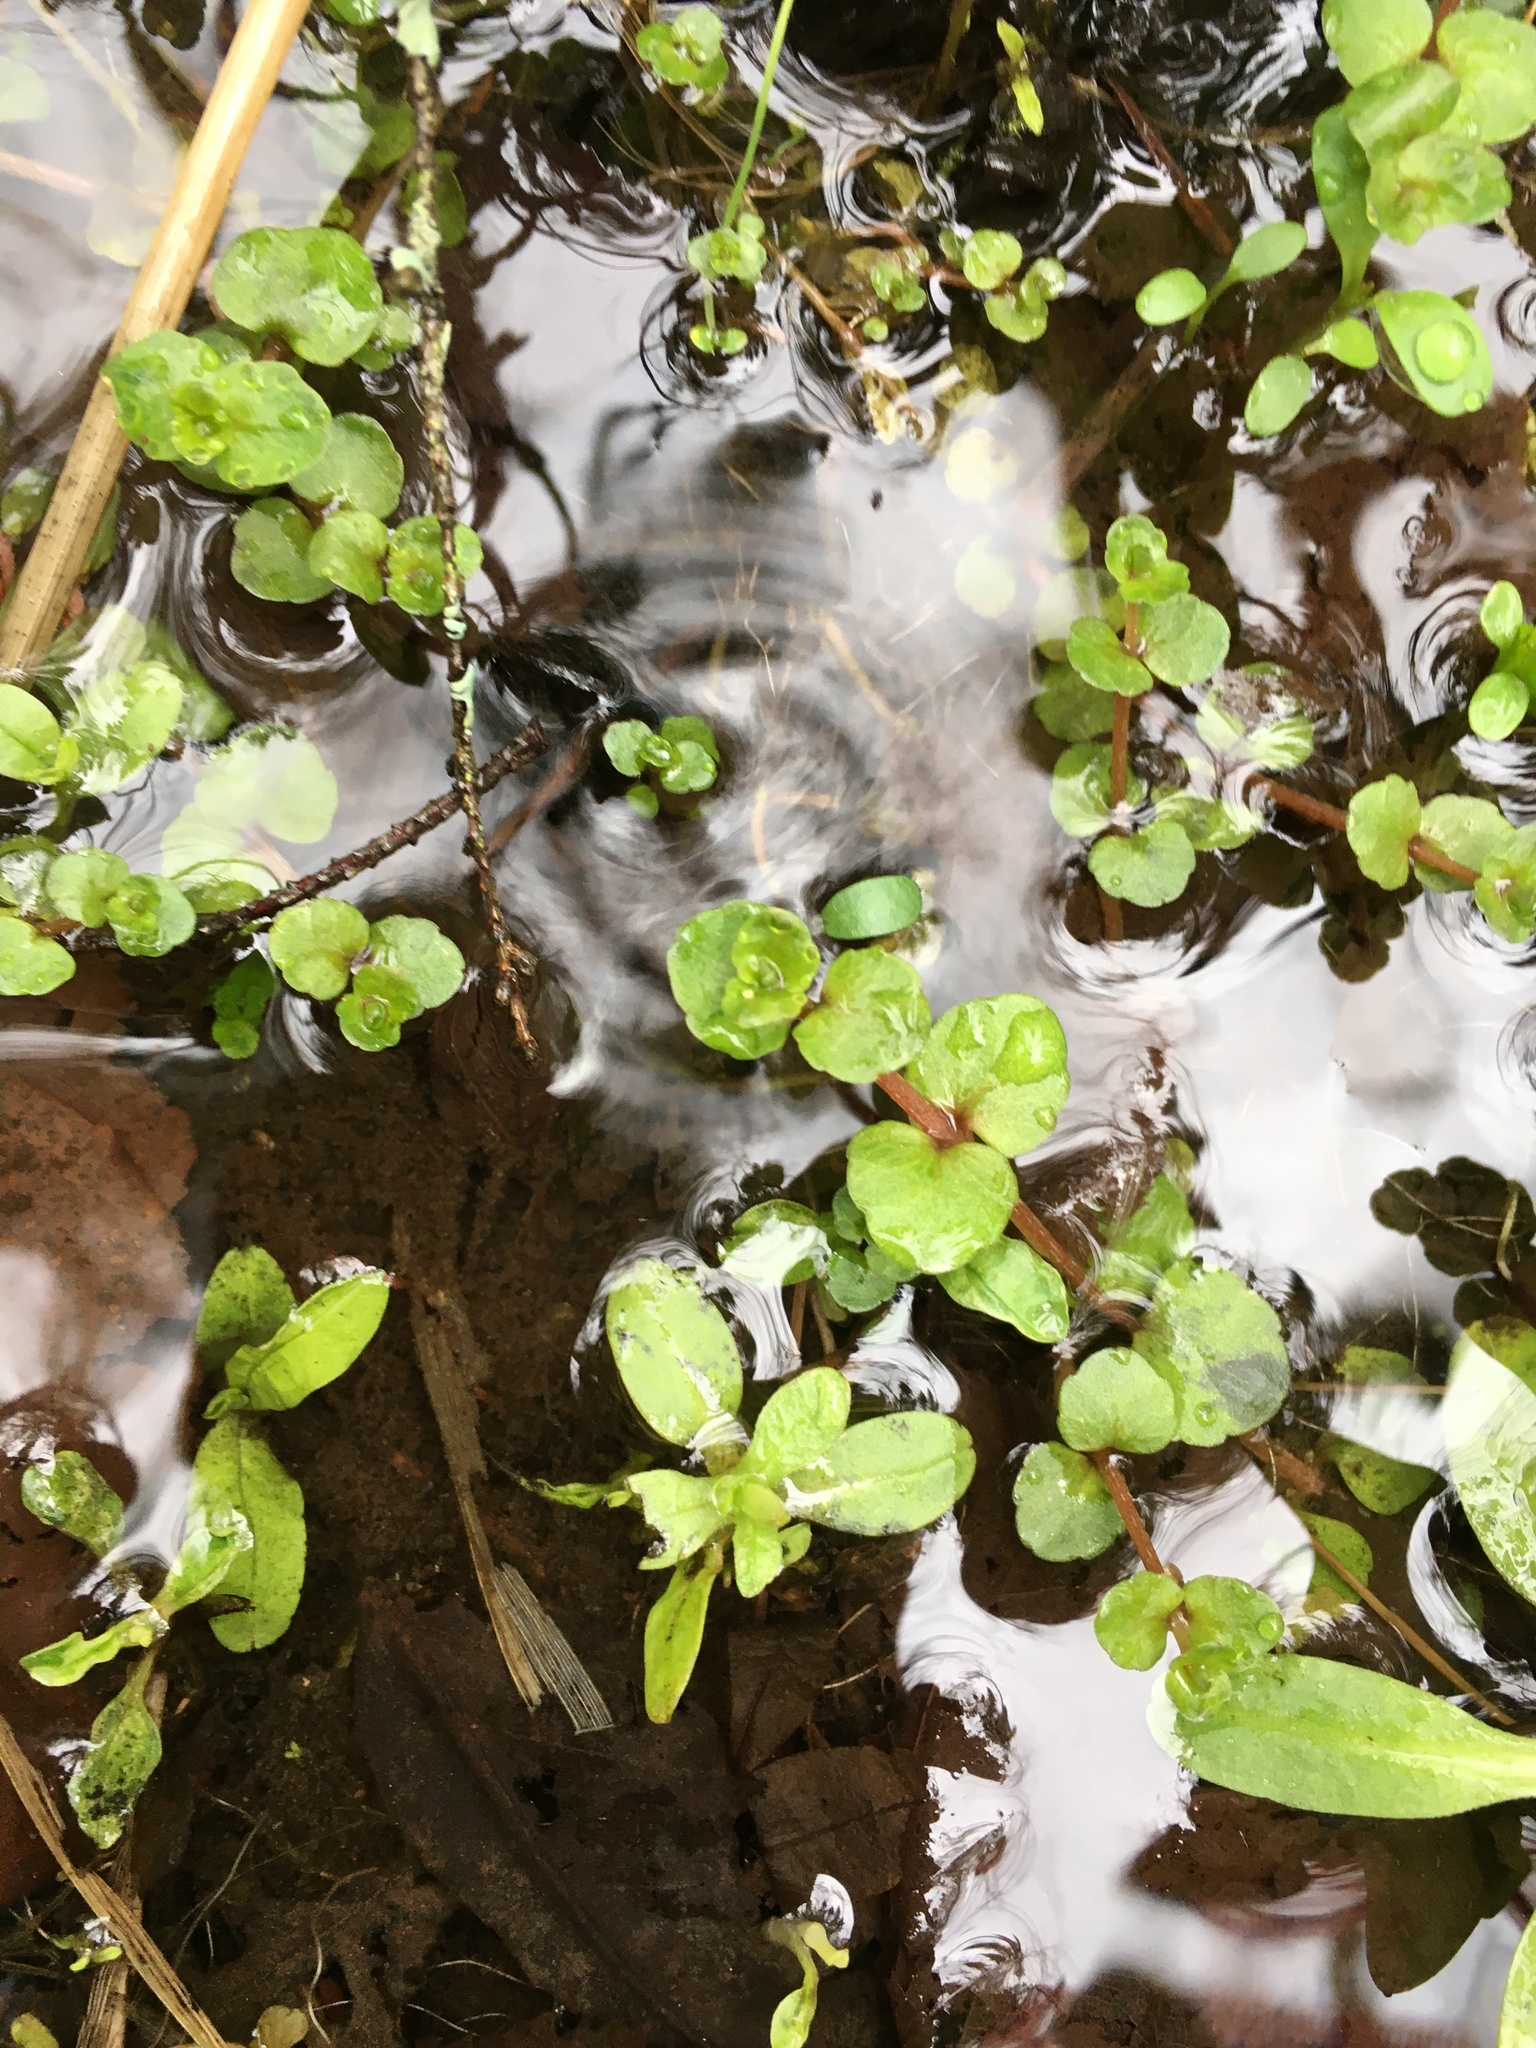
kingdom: Plantae
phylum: Tracheophyta
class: Magnoliopsida
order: Saxifragales
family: Saxifragaceae
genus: Chrysosplenium
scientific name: Chrysosplenium americanum
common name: American golden-saxifrage
